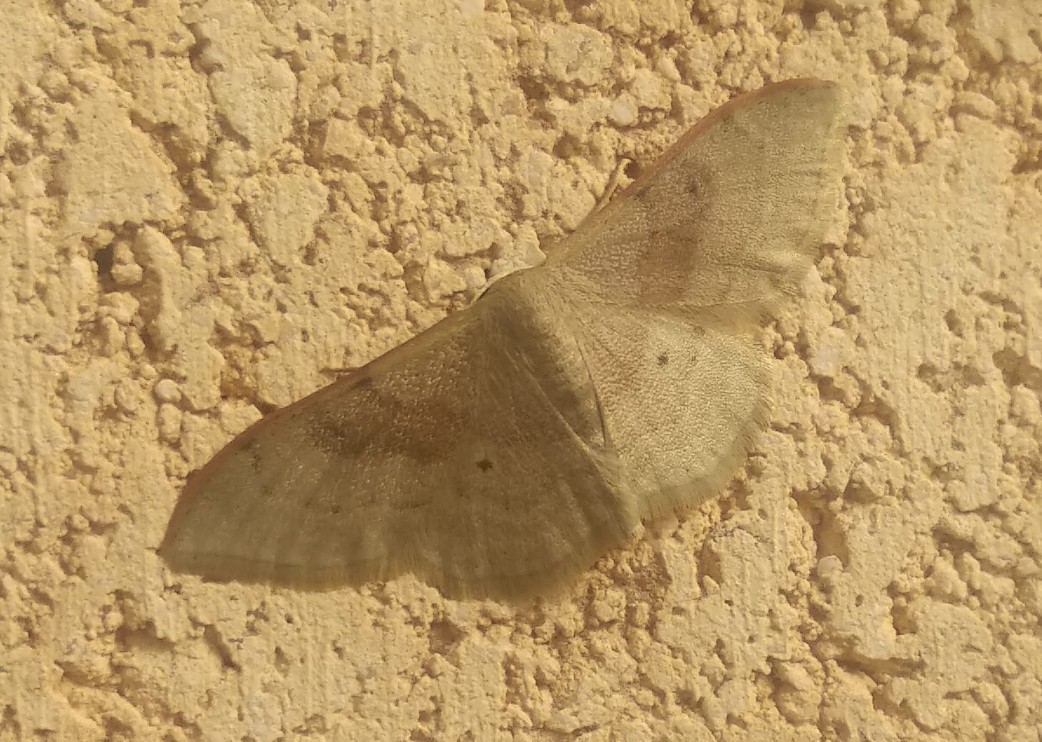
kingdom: Animalia
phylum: Arthropoda
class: Insecta
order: Lepidoptera
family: Geometridae
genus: Idaea
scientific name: Idaea degeneraria
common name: Portland ribbon wave
